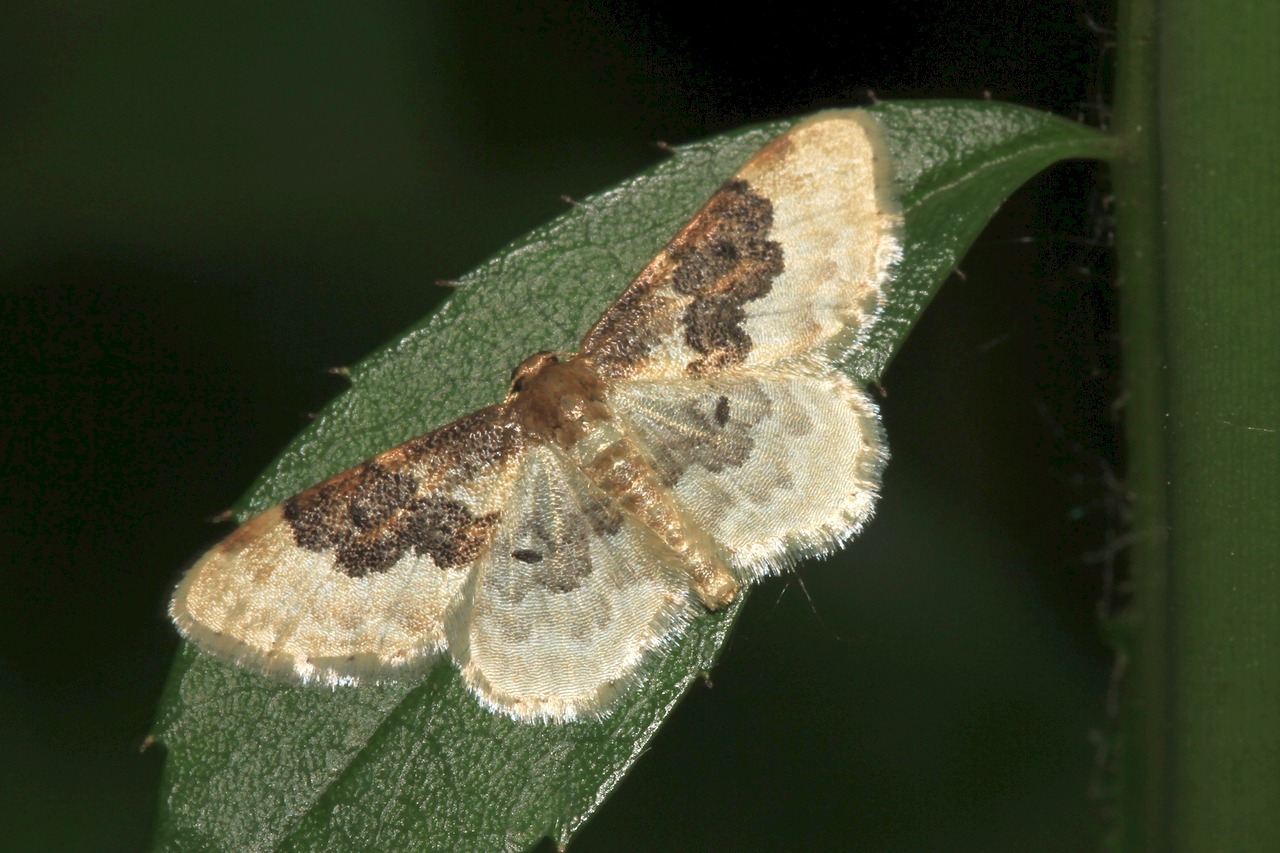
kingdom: Animalia
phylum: Arthropoda
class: Insecta
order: Lepidoptera
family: Geometridae
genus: Idaea
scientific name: Idaea rusticata
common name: Least carpet
